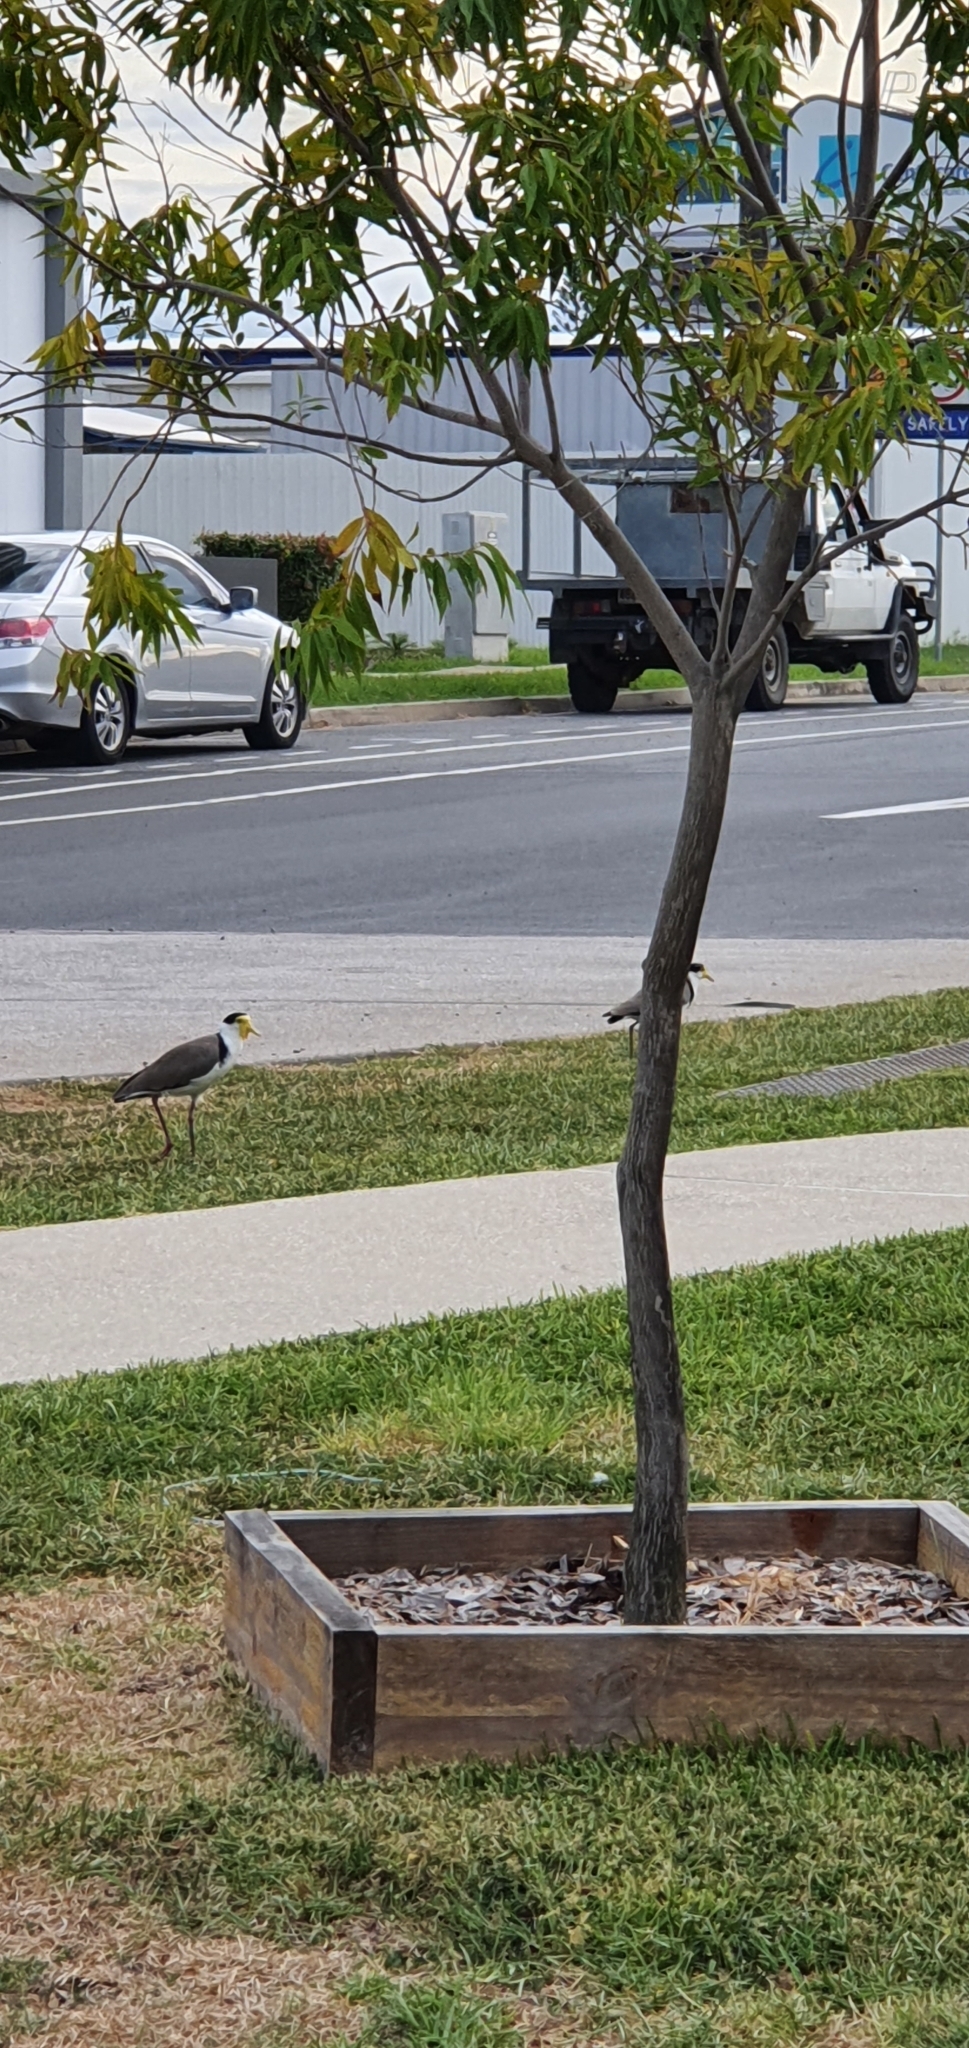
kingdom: Animalia
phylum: Chordata
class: Aves
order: Charadriiformes
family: Charadriidae
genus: Vanellus
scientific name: Vanellus miles
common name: Masked lapwing
